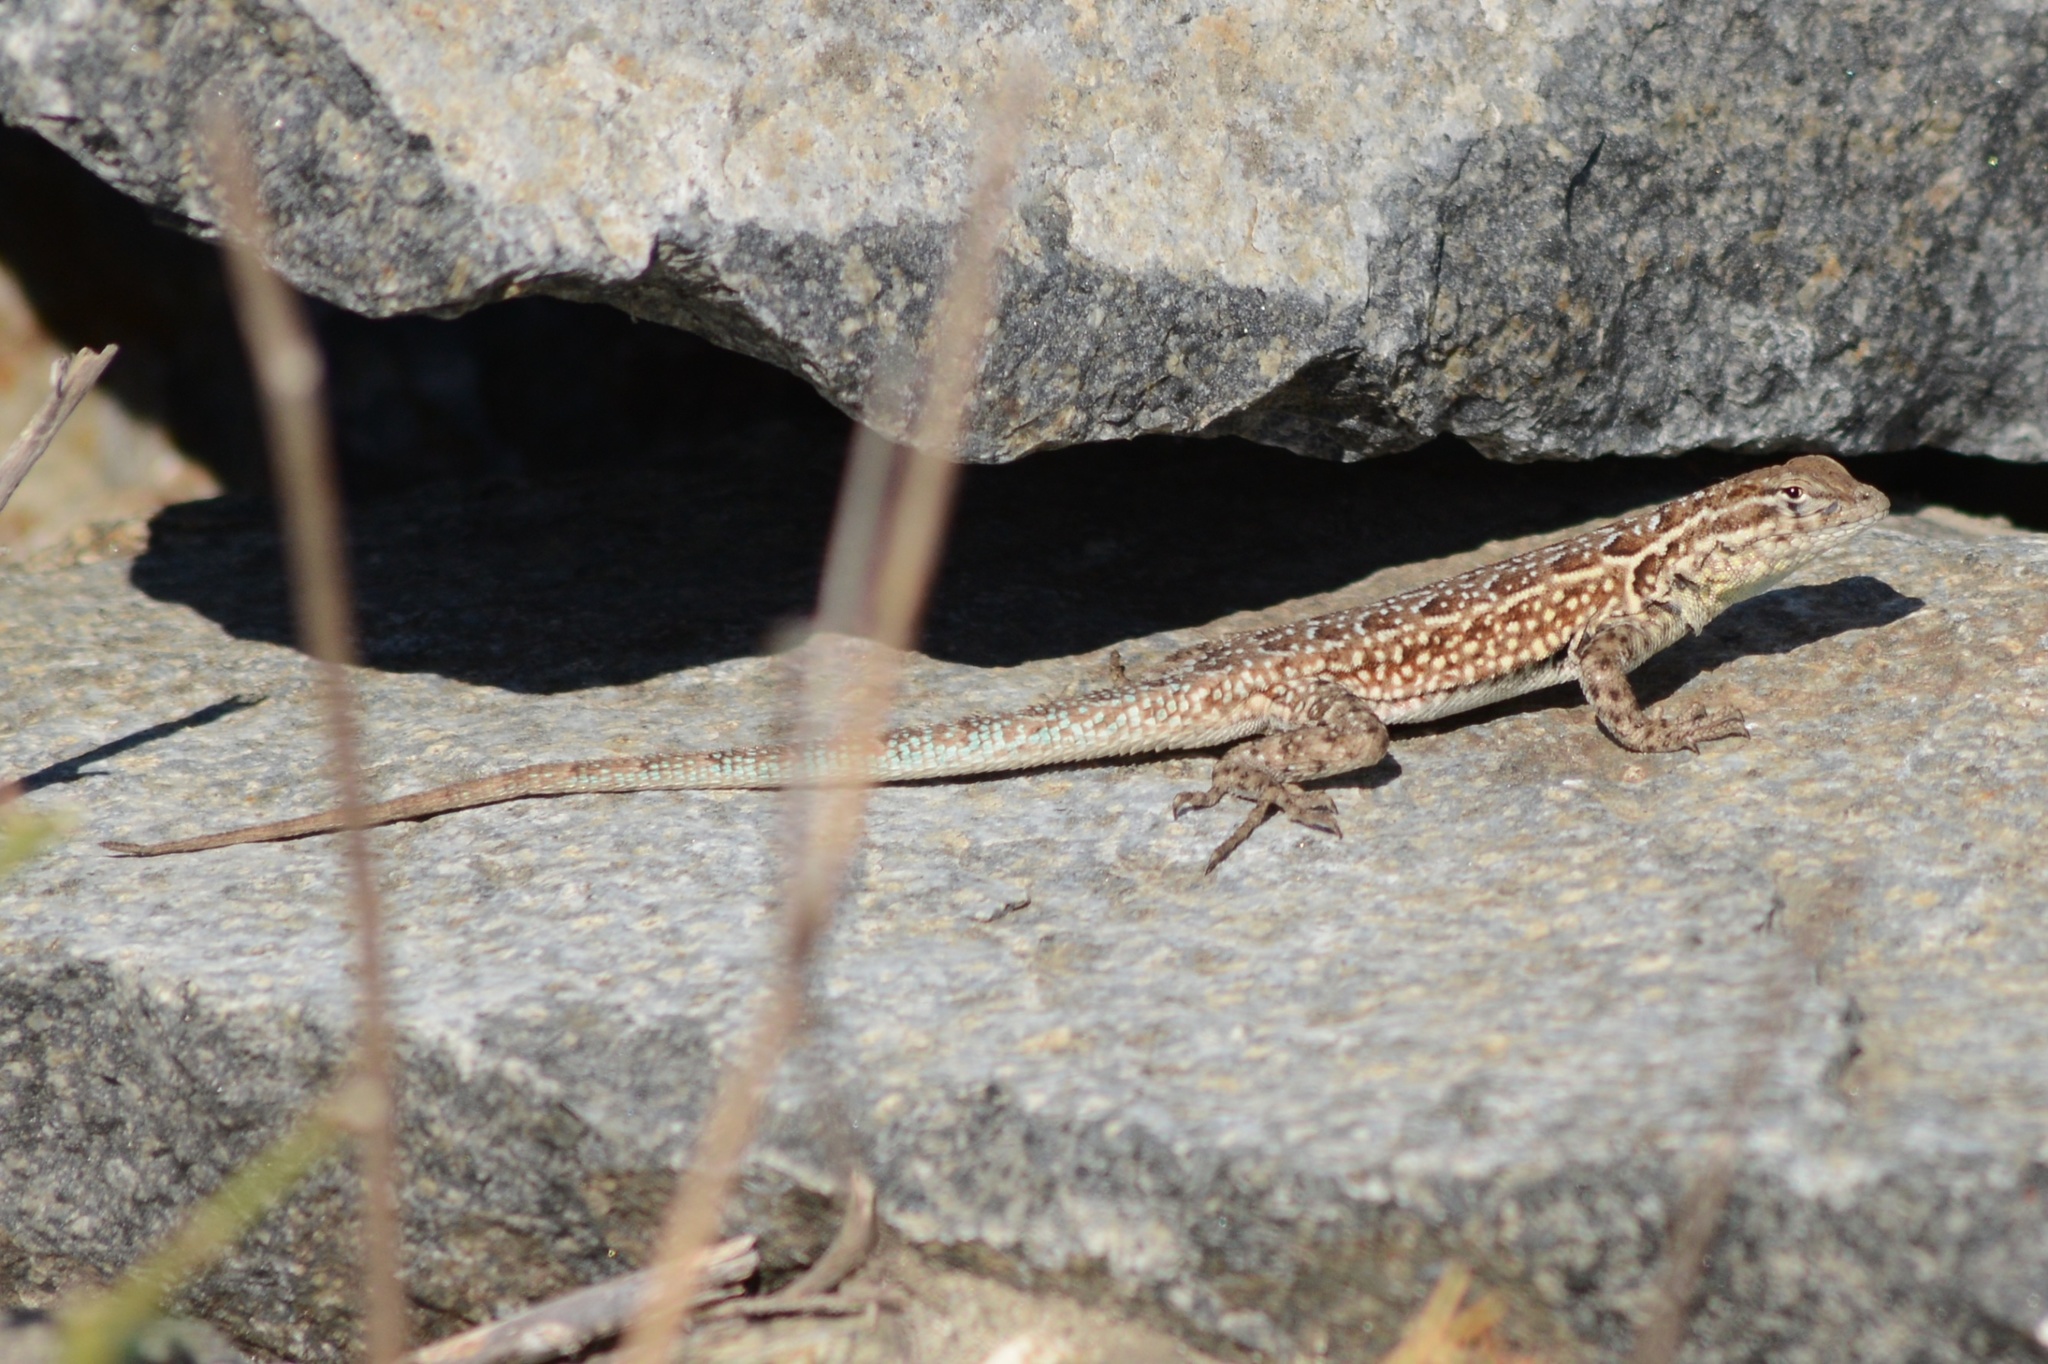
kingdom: Animalia
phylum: Chordata
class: Squamata
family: Phrynosomatidae
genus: Uta
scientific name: Uta stansburiana
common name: Side-blotched lizard
